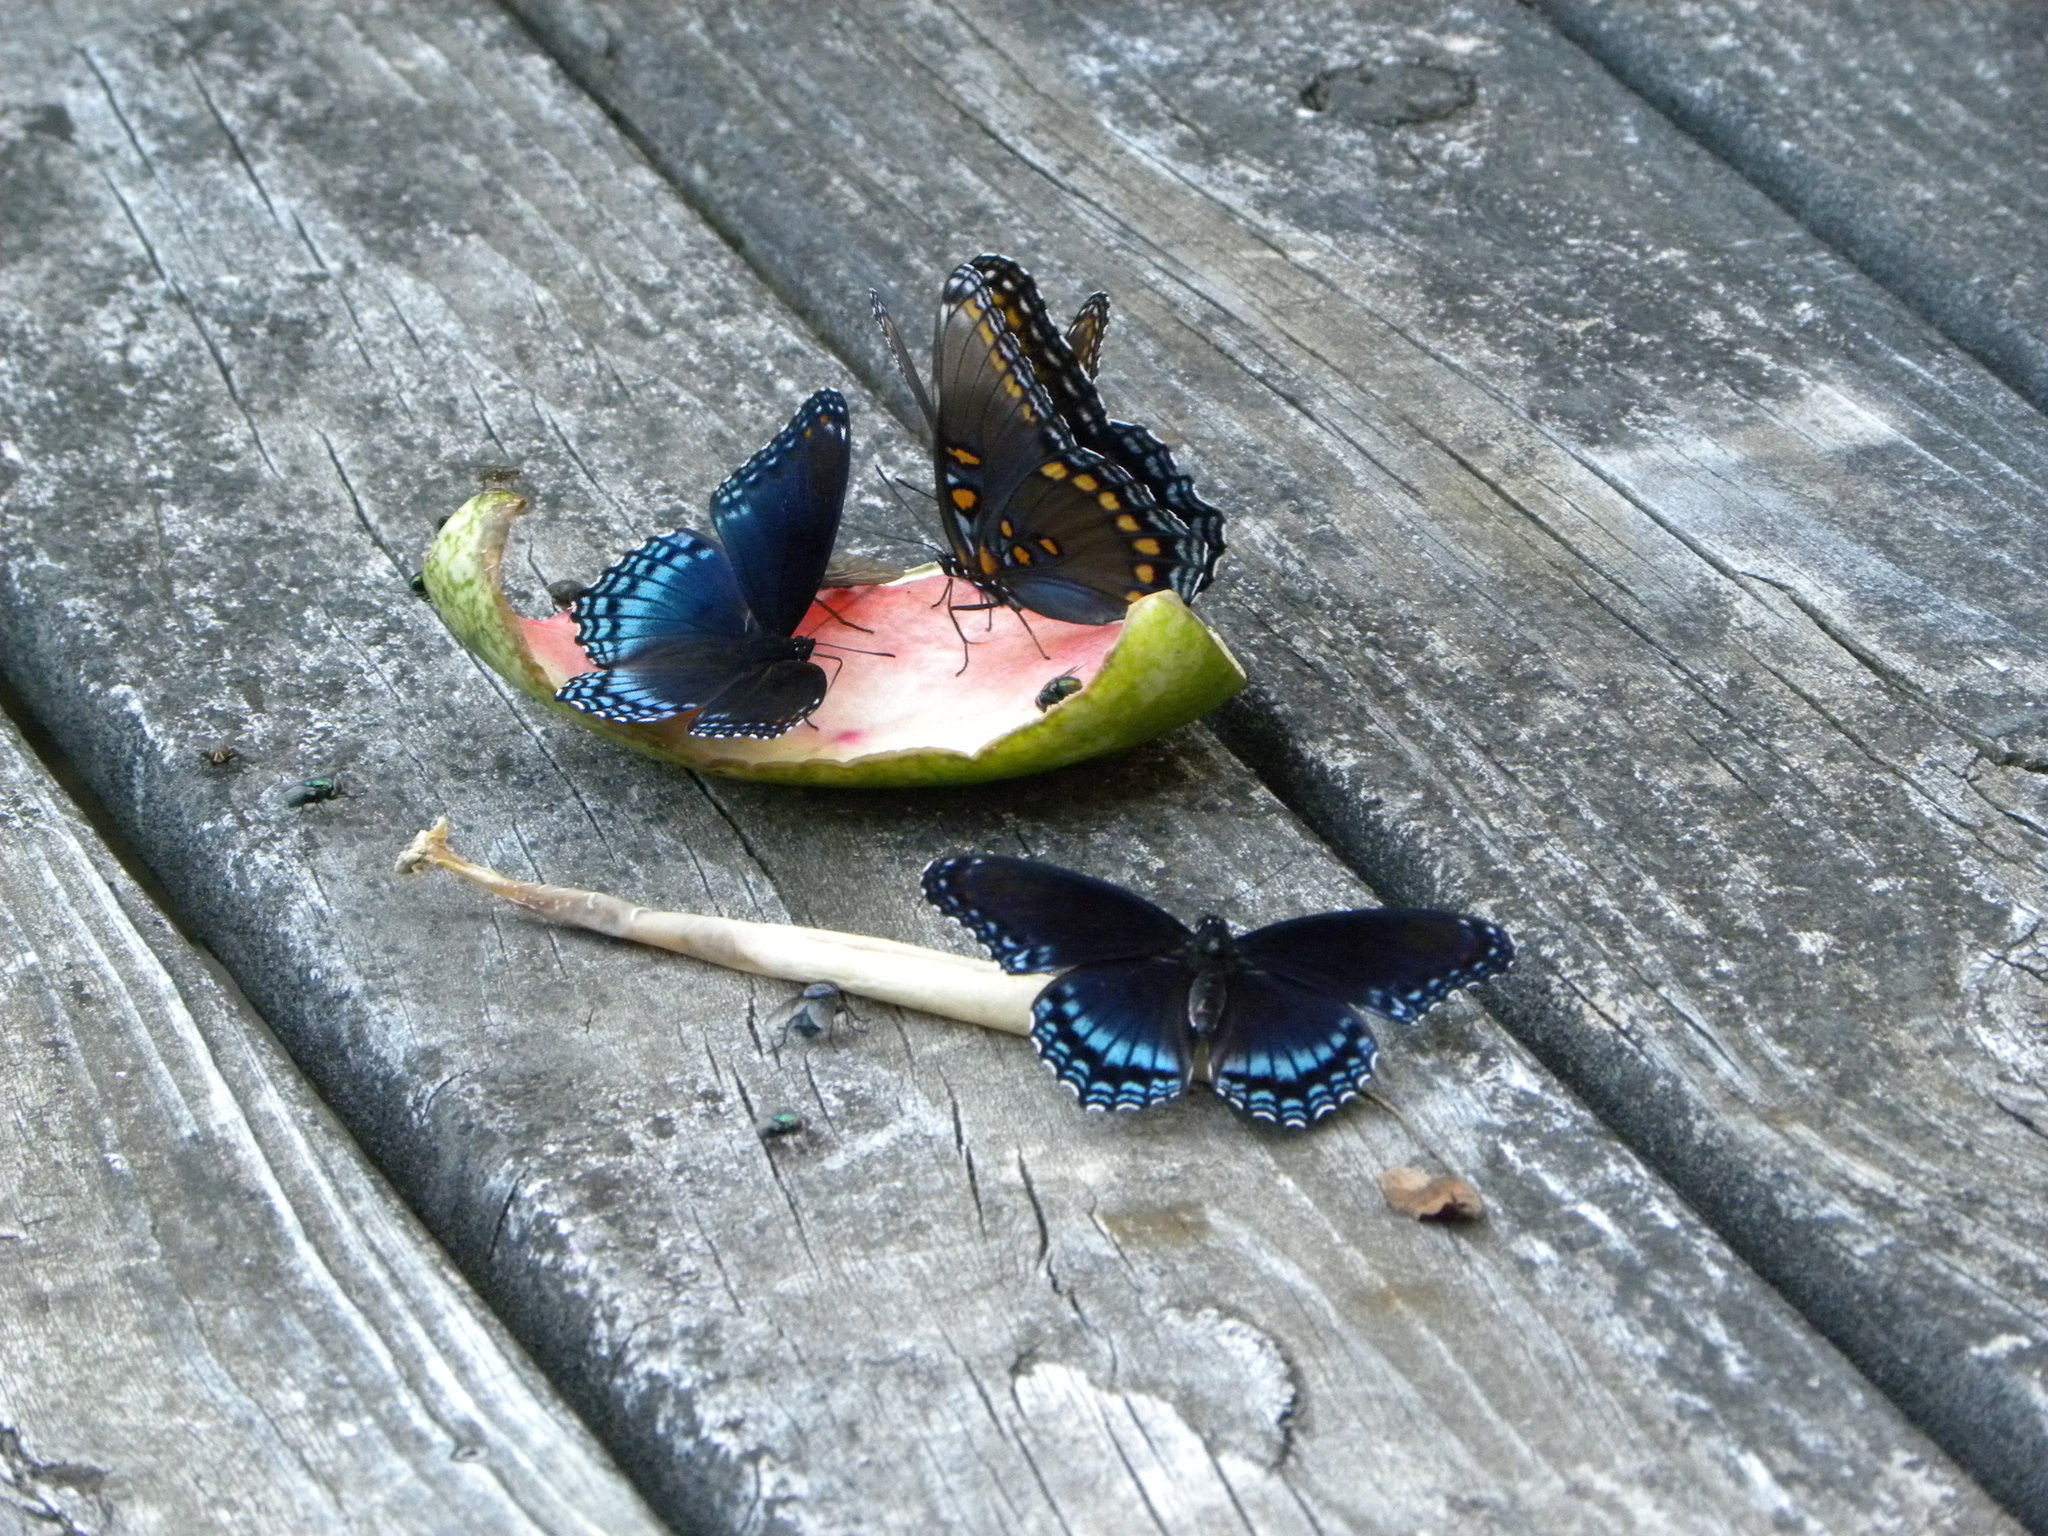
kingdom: Animalia
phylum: Arthropoda
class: Insecta
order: Lepidoptera
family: Nymphalidae
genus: Limenitis
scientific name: Limenitis astyanax
